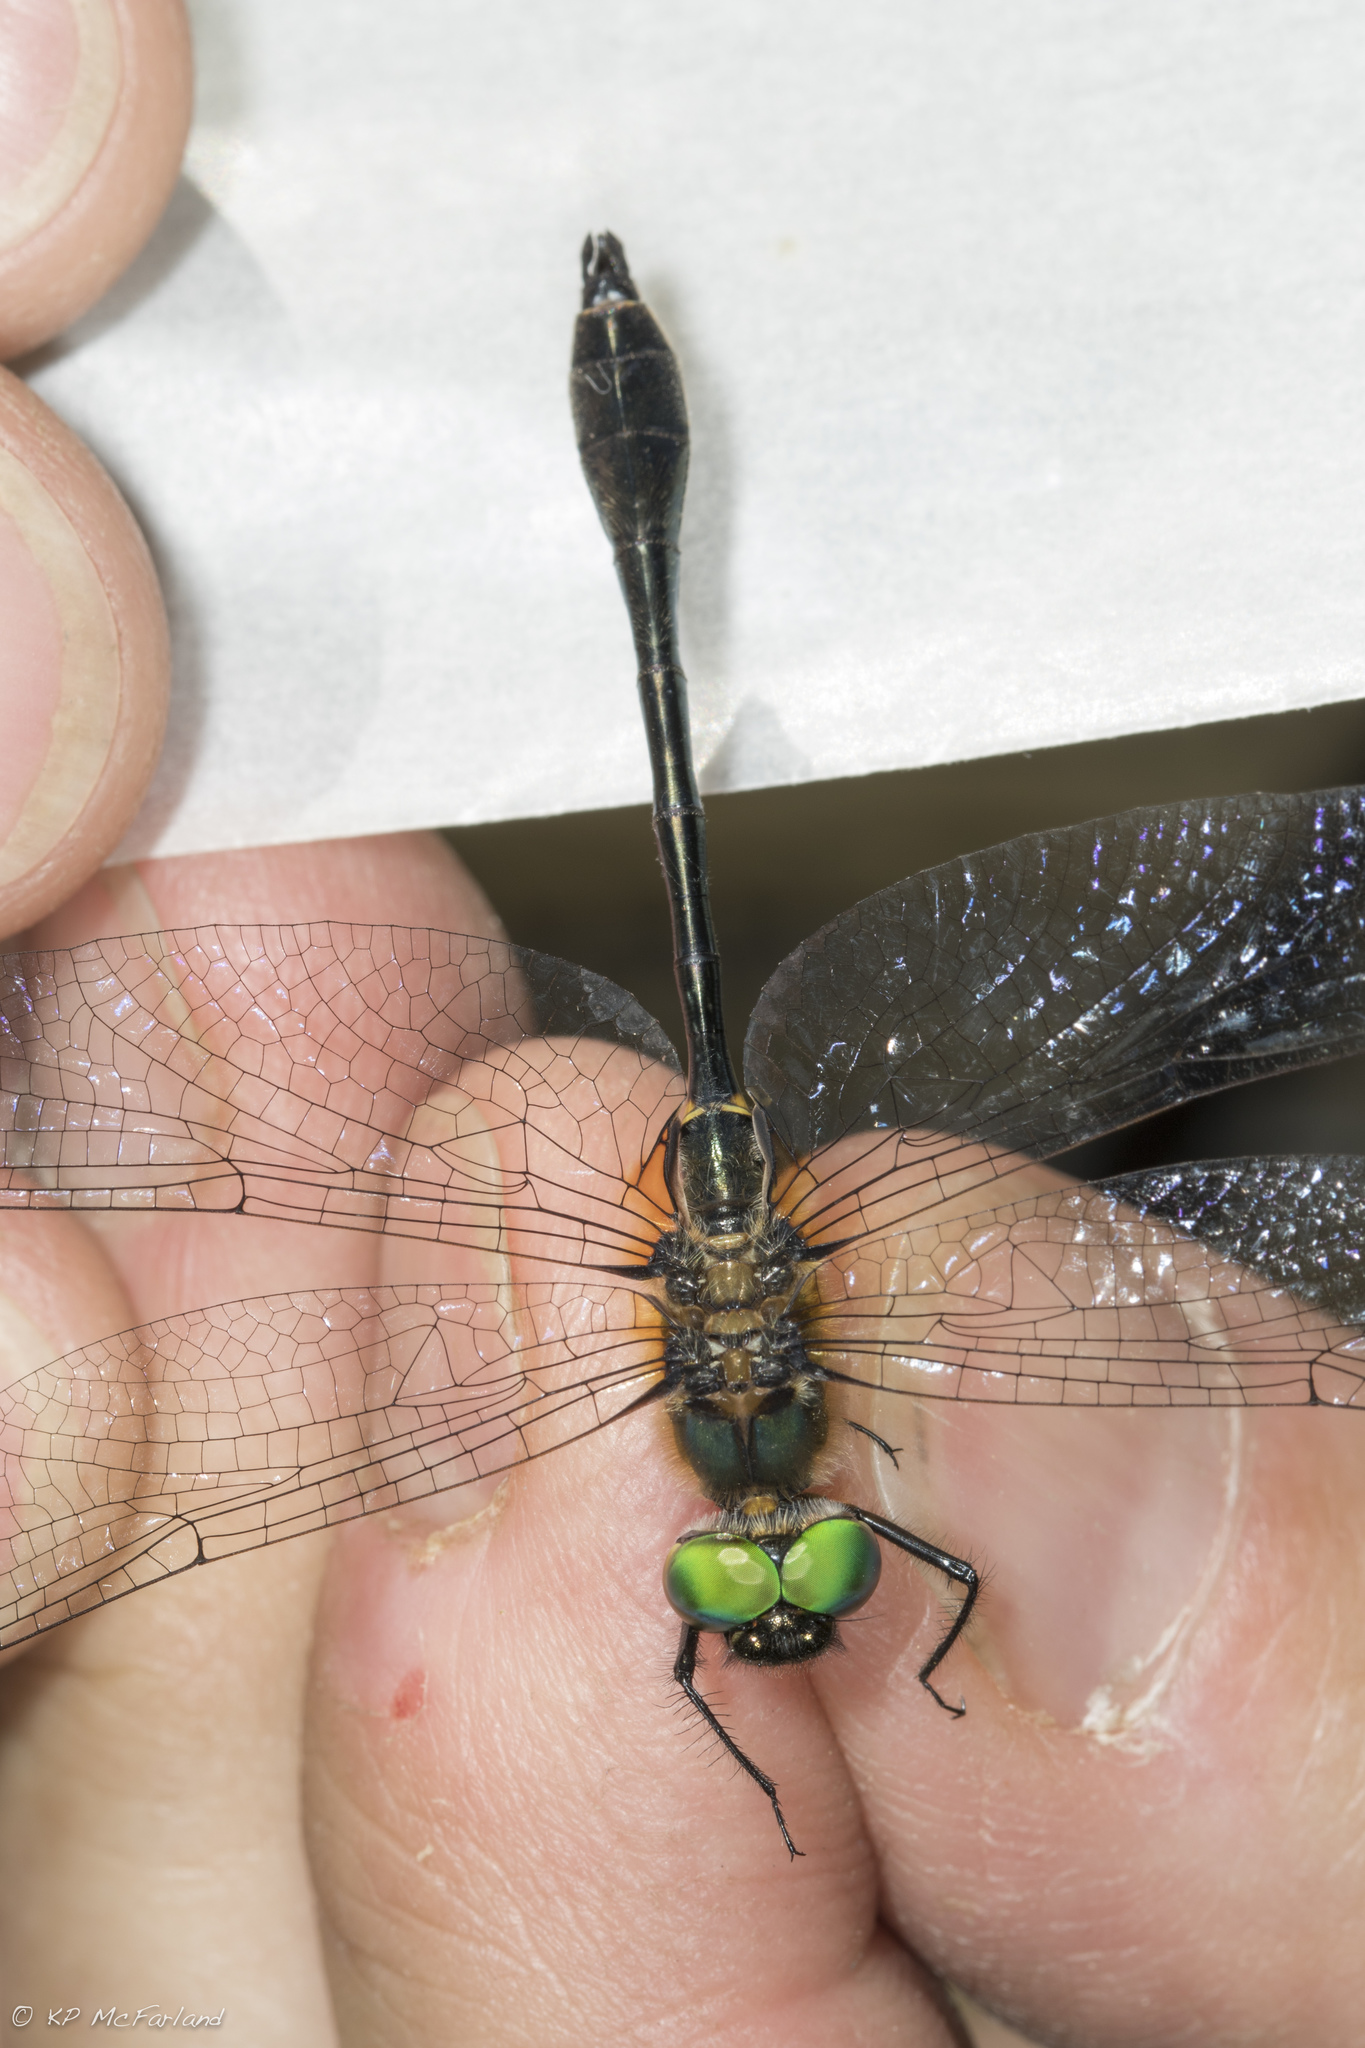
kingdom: Animalia
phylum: Arthropoda
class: Insecta
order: Odonata
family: Corduliidae
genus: Dorocordulia
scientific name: Dorocordulia libera
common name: Racket-tailed emerald
